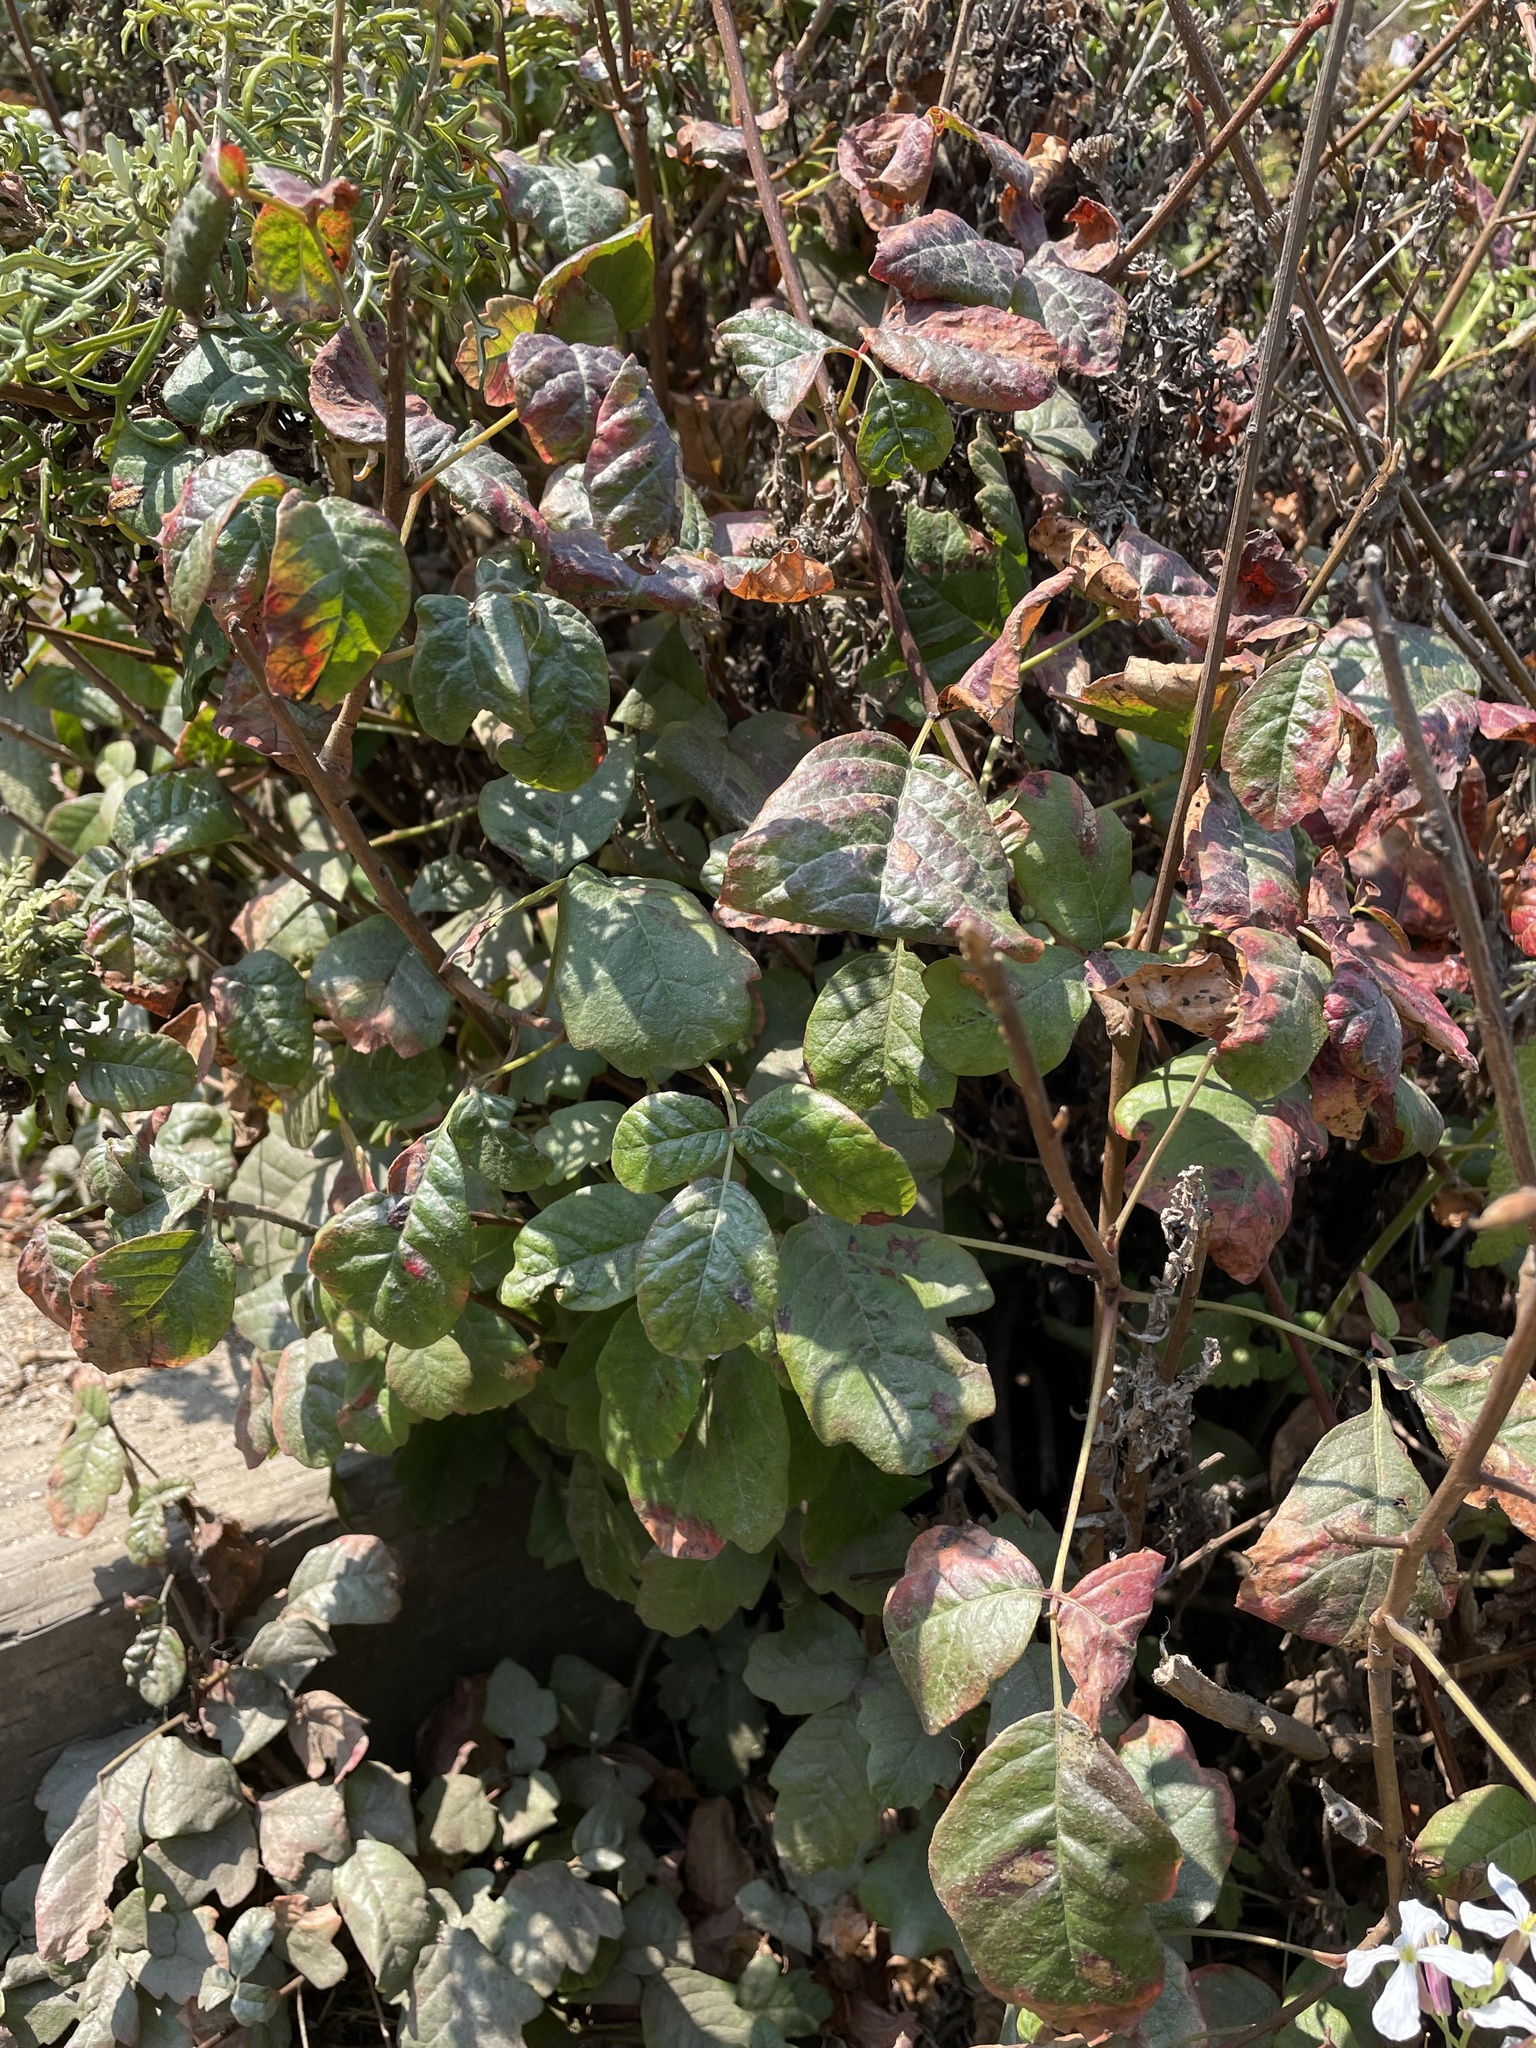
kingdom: Plantae
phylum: Tracheophyta
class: Magnoliopsida
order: Sapindales
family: Anacardiaceae
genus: Toxicodendron
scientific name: Toxicodendron diversilobum
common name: Pacific poison-oak
